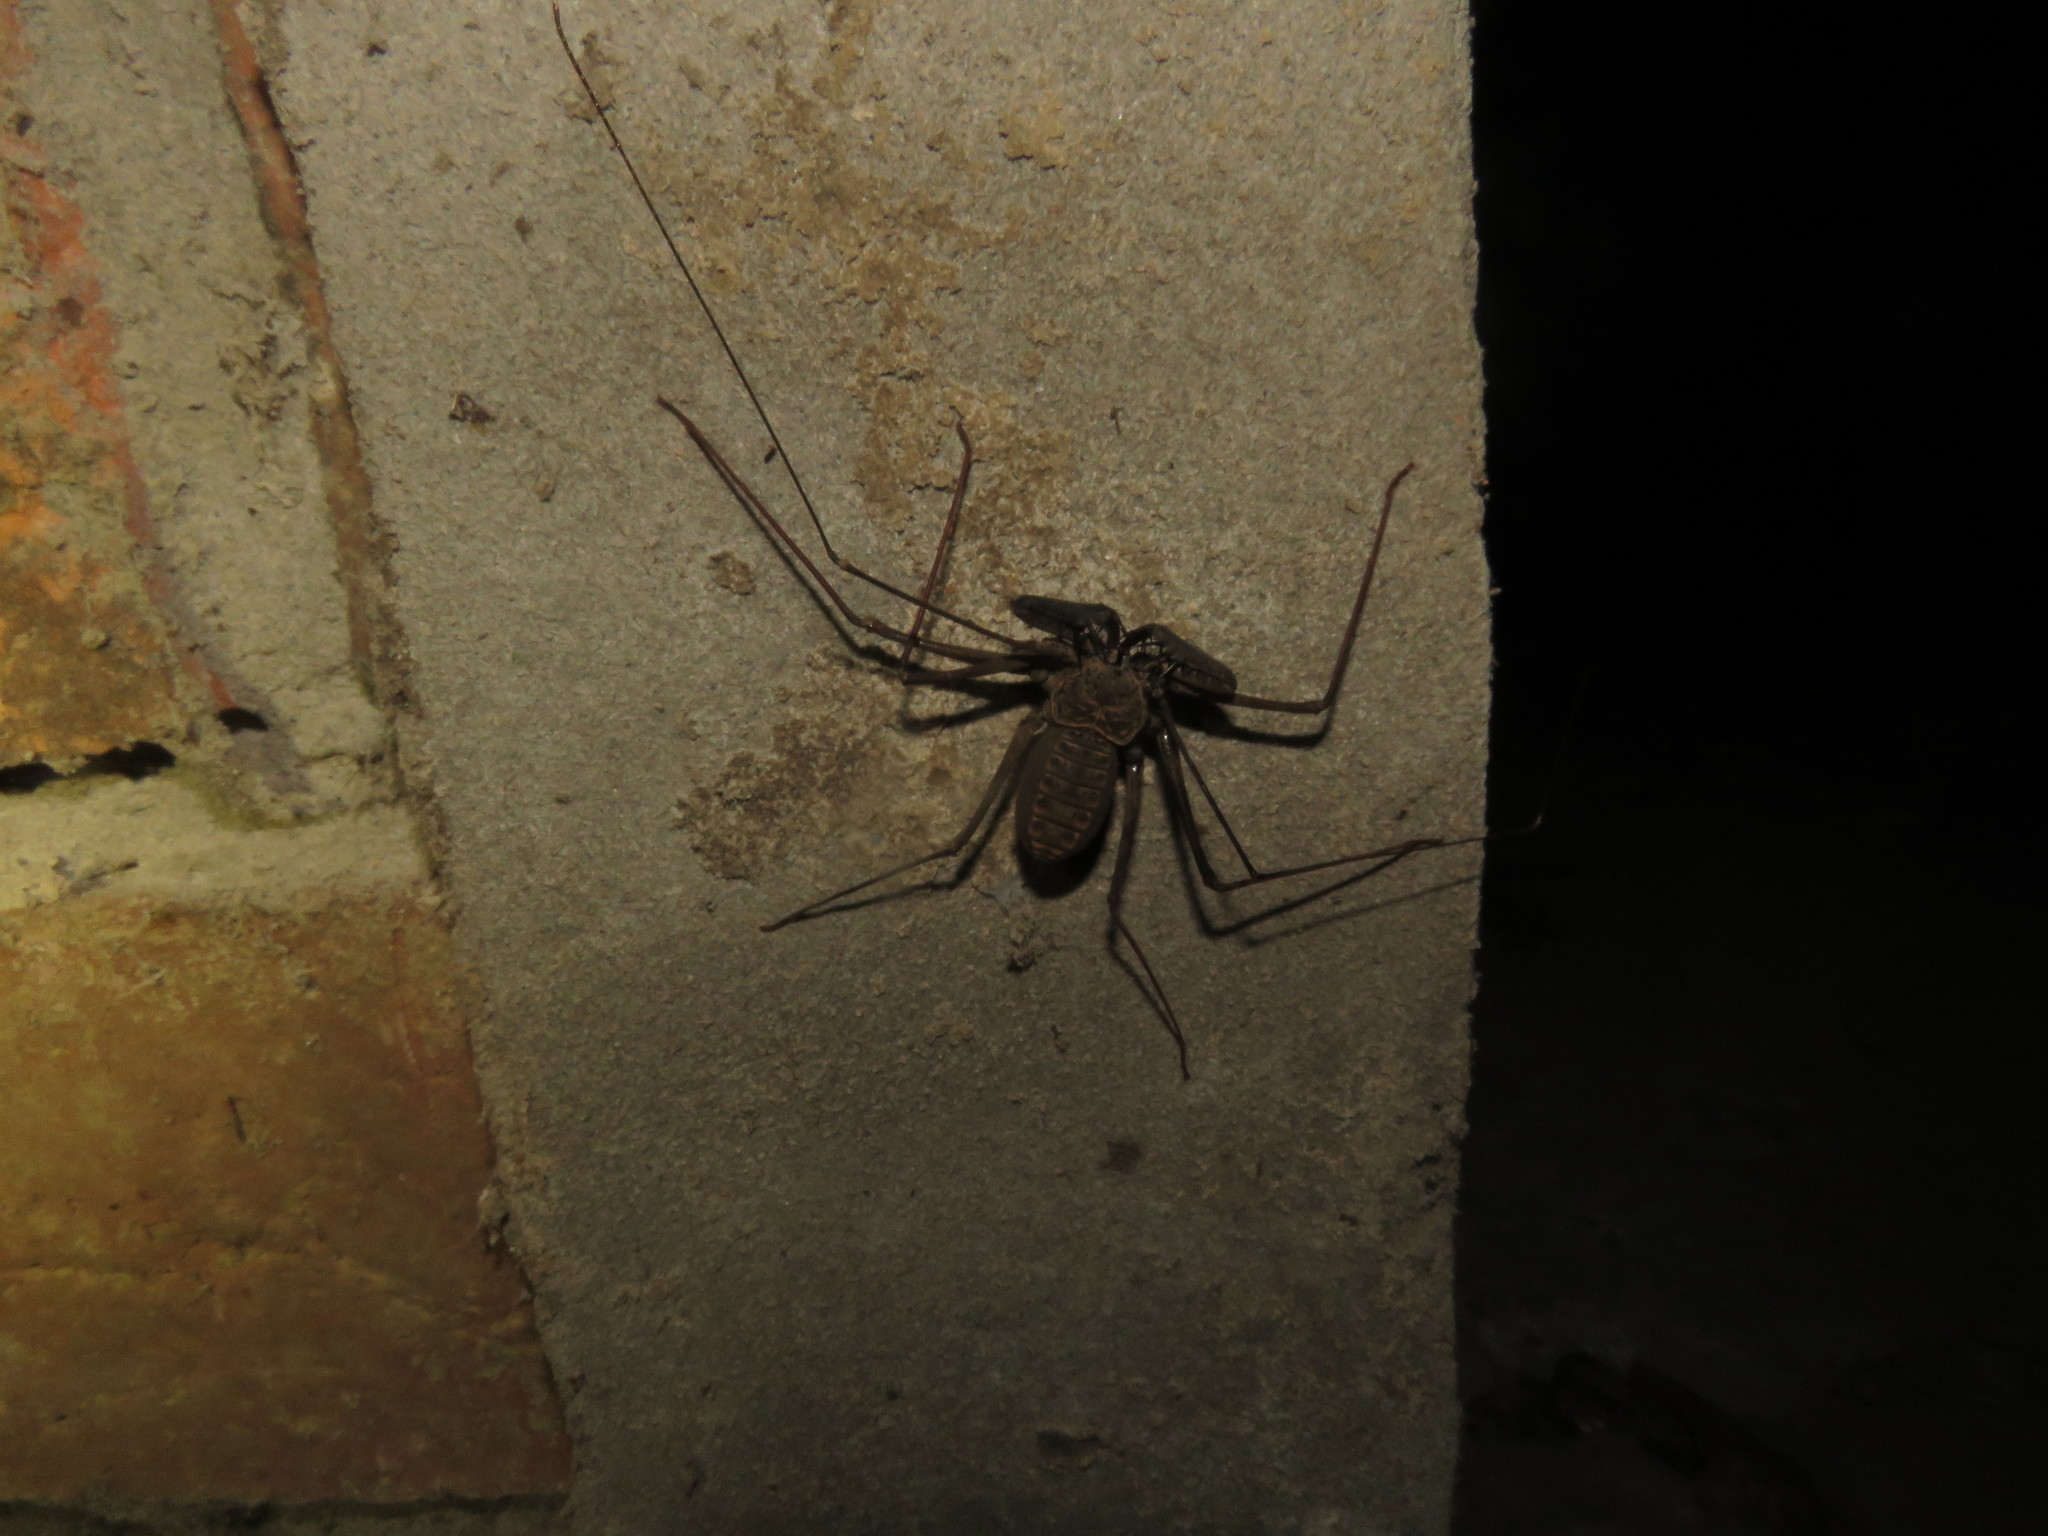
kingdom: Animalia
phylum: Arthropoda
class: Arachnida
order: Amblypygi
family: Phrynidae
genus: Heterophrynus
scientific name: Heterophrynus longicornis
